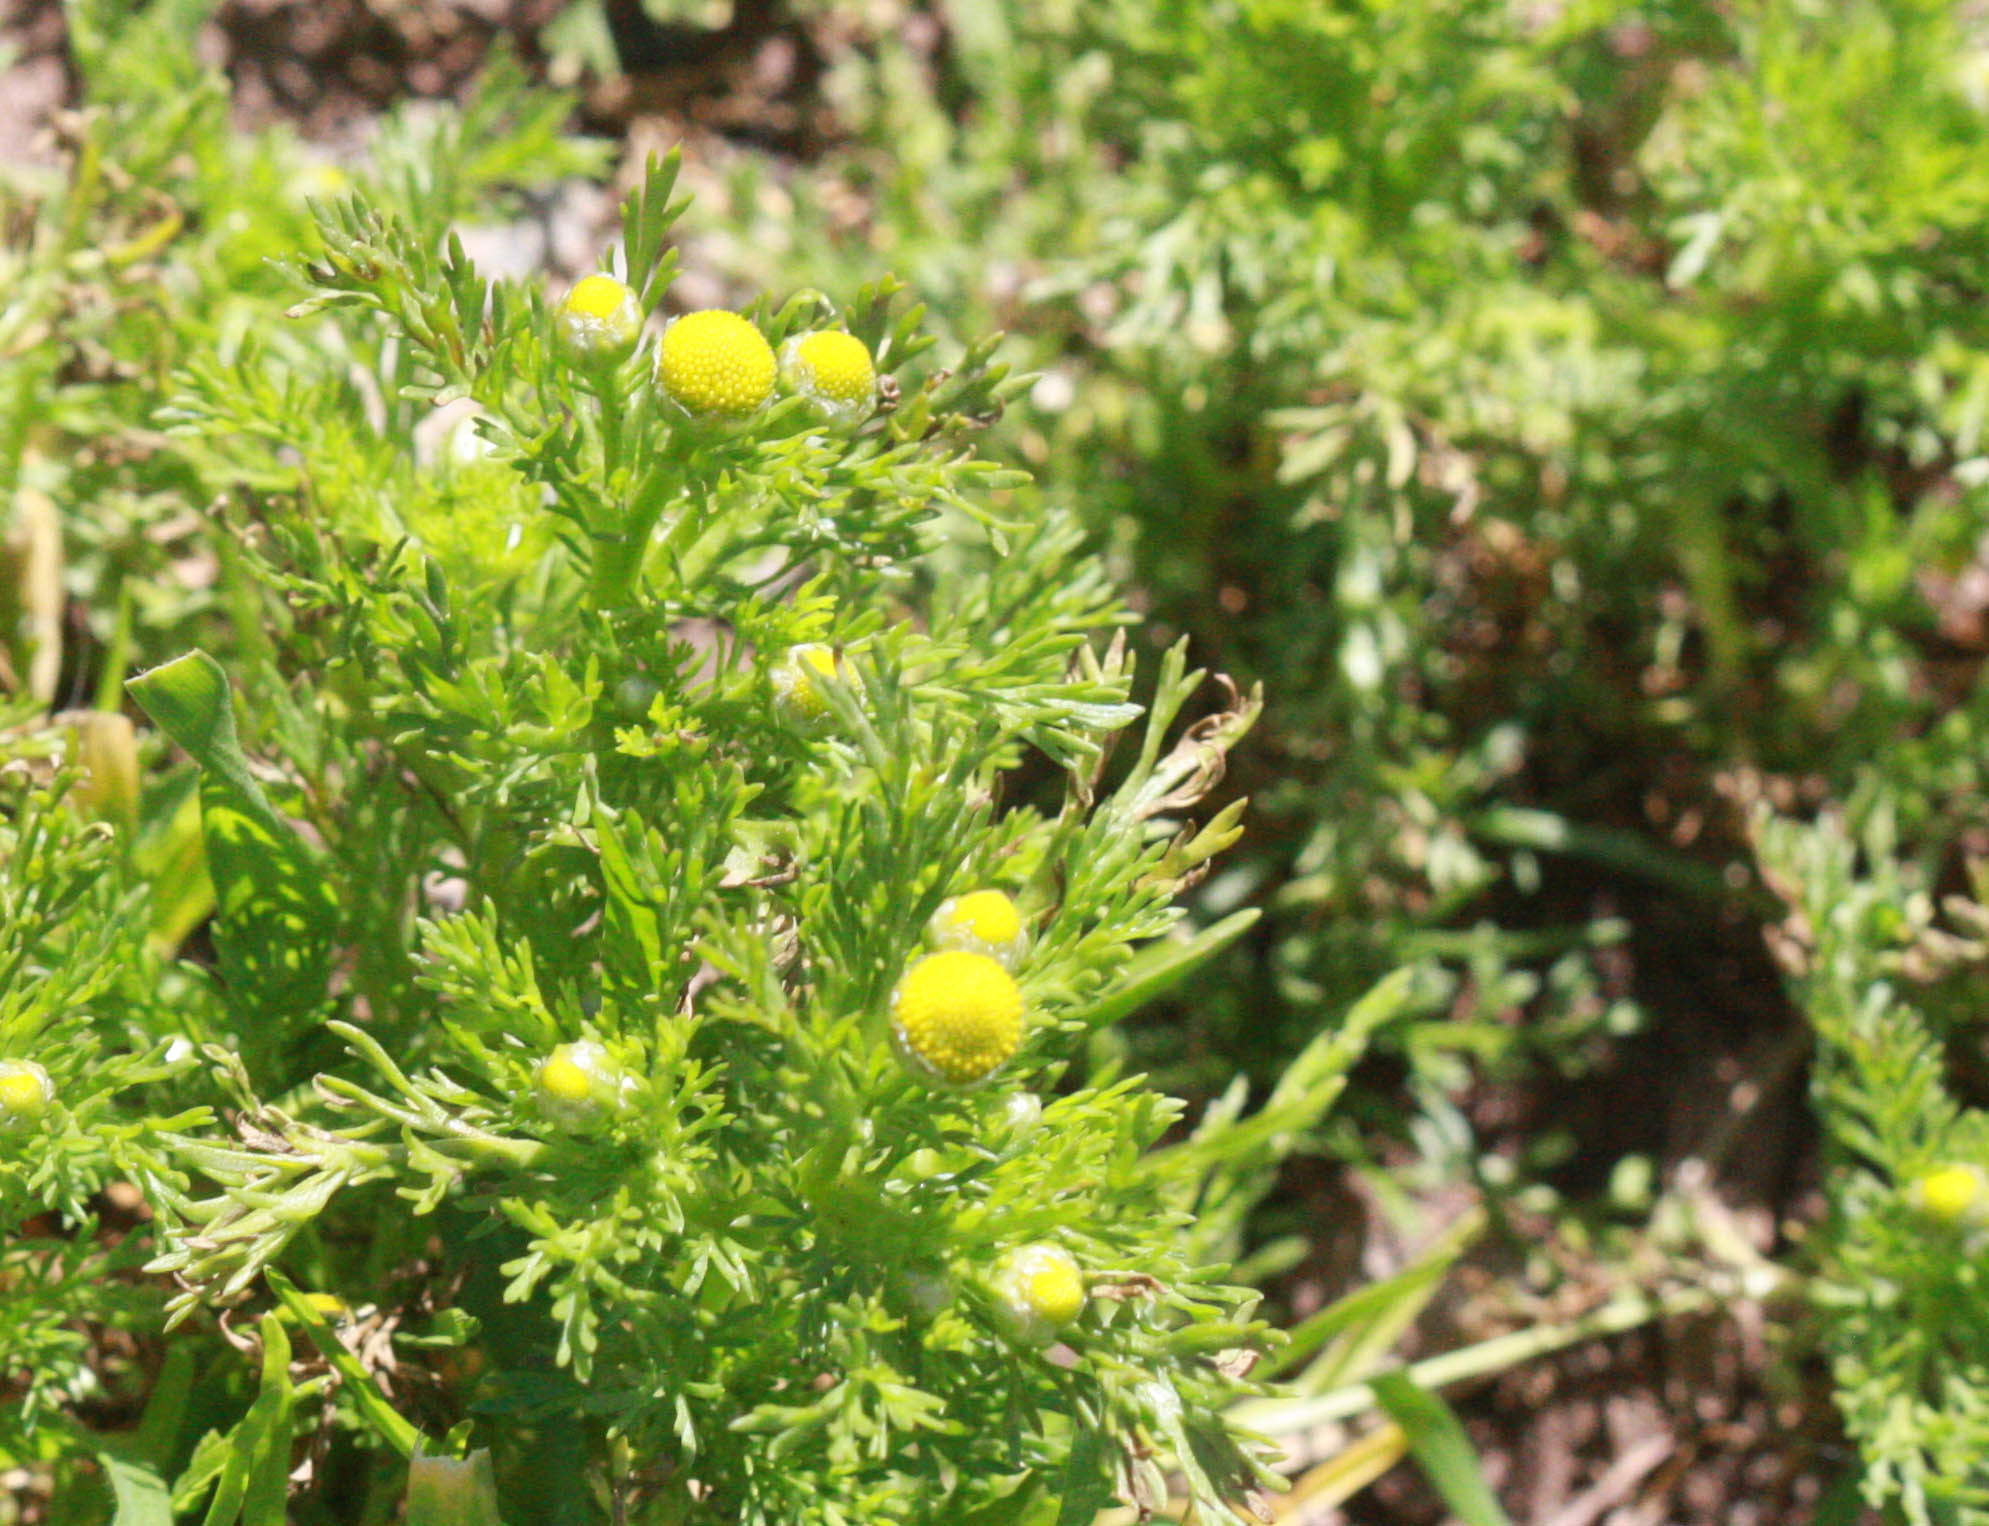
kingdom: Plantae
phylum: Tracheophyta
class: Magnoliopsida
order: Asterales
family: Asteraceae
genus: Matricaria
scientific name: Matricaria discoidea
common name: Disc mayweed
